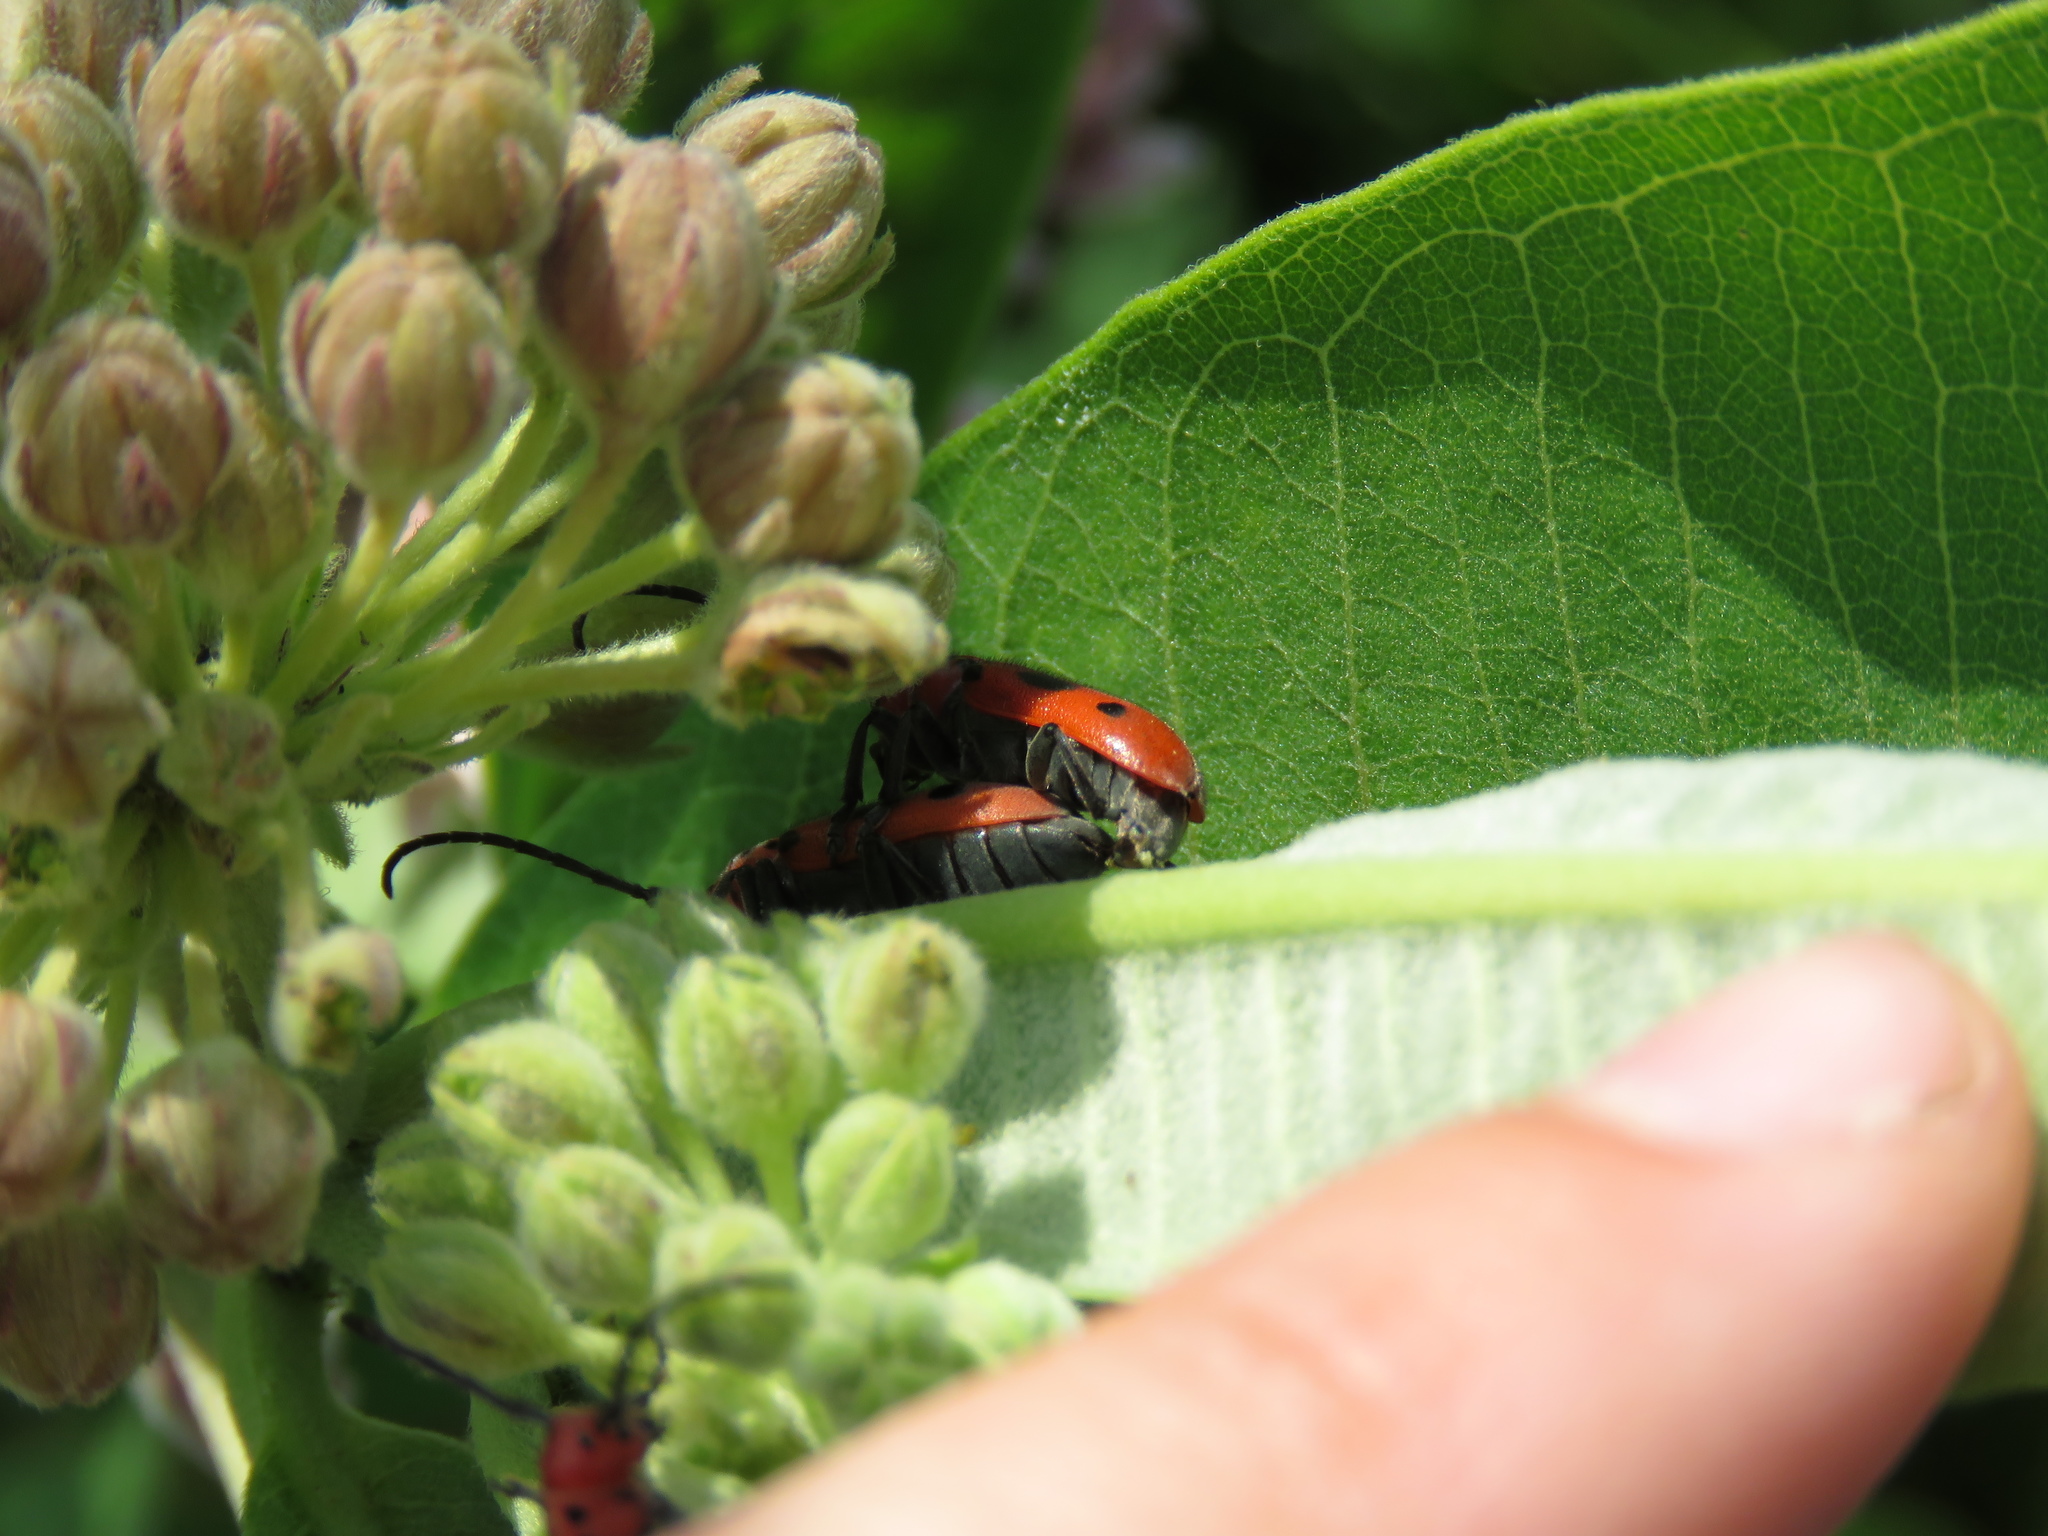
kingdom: Animalia
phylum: Arthropoda
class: Insecta
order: Coleoptera
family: Cerambycidae
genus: Tetraopes
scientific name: Tetraopes tetrophthalmus
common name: Red milkweed beetle
